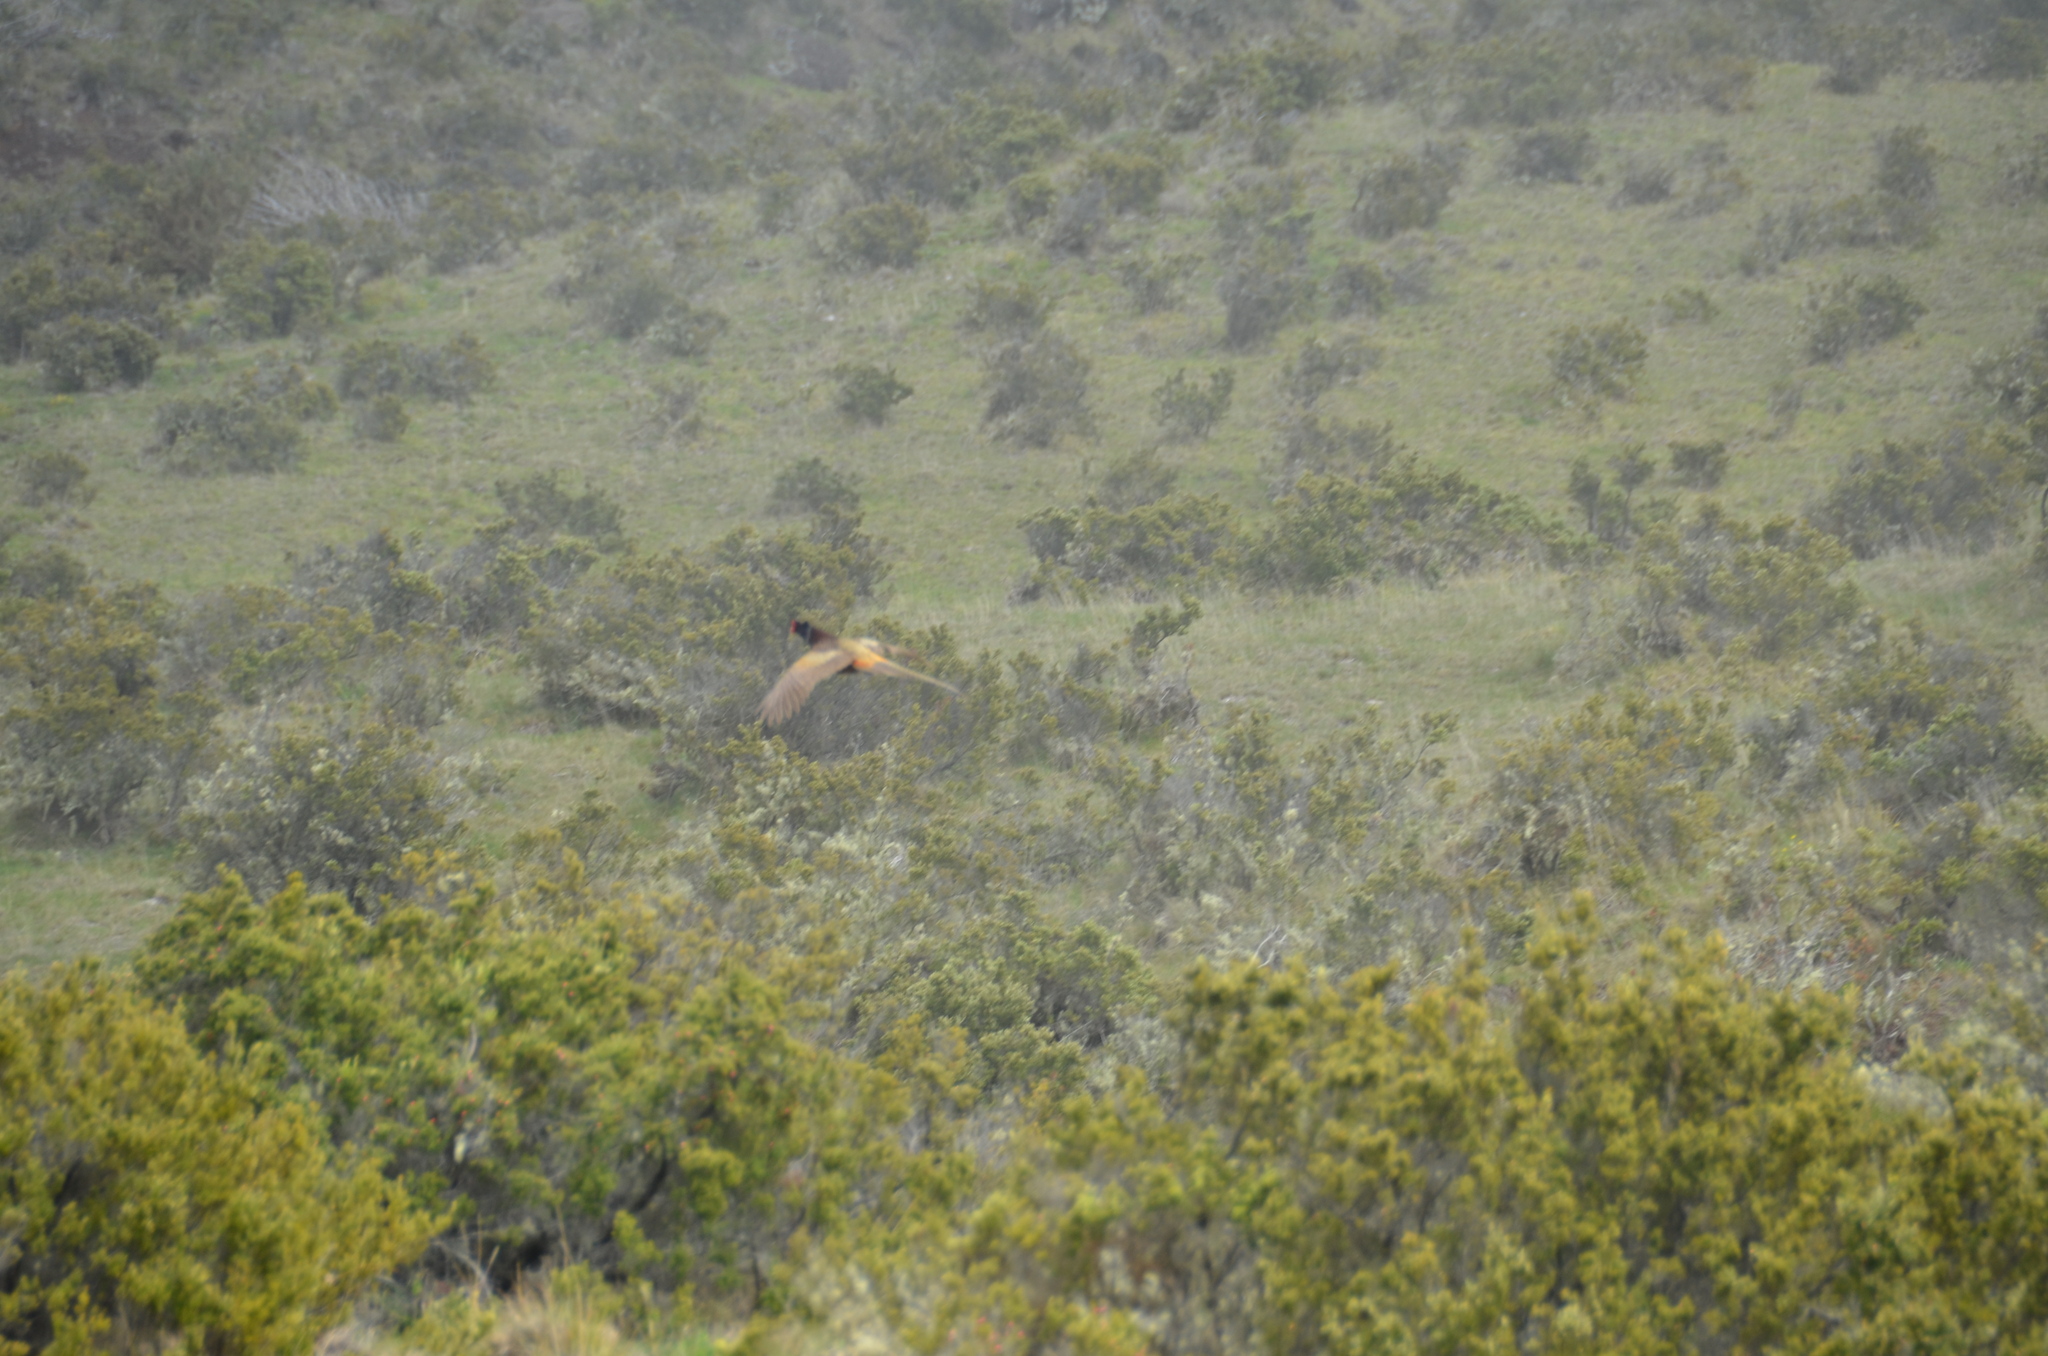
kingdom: Animalia
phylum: Chordata
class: Aves
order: Galliformes
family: Phasianidae
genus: Phasianus
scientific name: Phasianus colchicus
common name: Common pheasant
